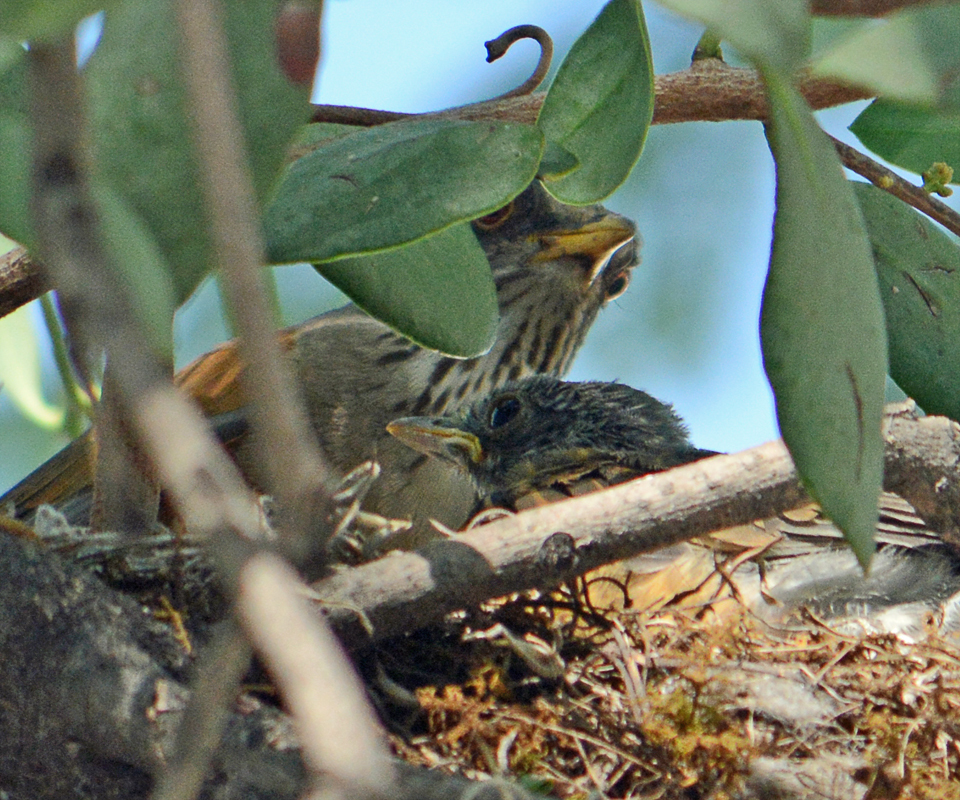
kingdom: Animalia
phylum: Chordata
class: Aves
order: Passeriformes
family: Turdidae
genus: Turdus
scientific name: Turdus rufopalliatus
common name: Rufous-backed robin
